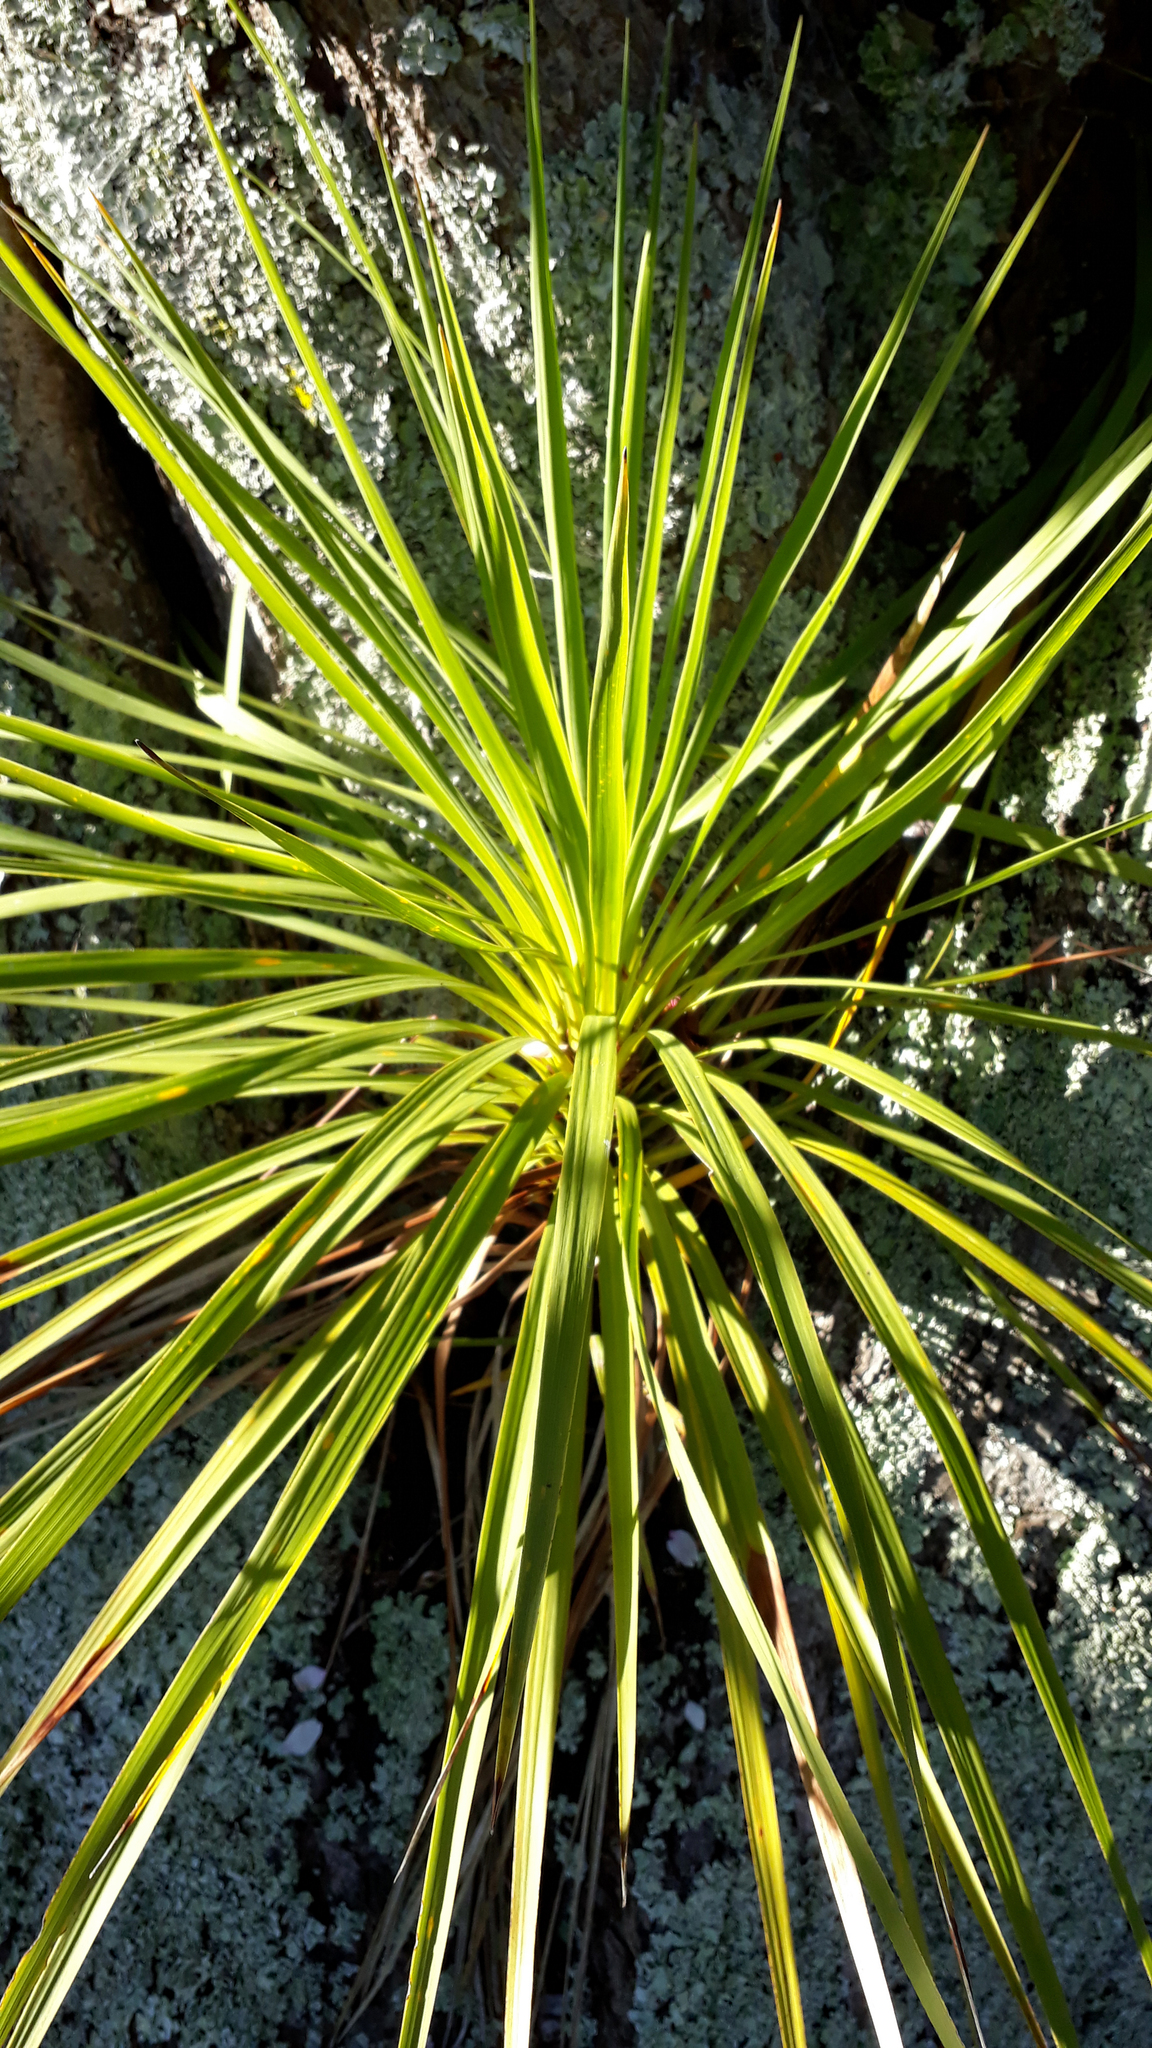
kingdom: Plantae
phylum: Tracheophyta
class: Liliopsida
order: Asparagales
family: Asparagaceae
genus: Cordyline
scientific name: Cordyline australis
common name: Cabbage-palm
